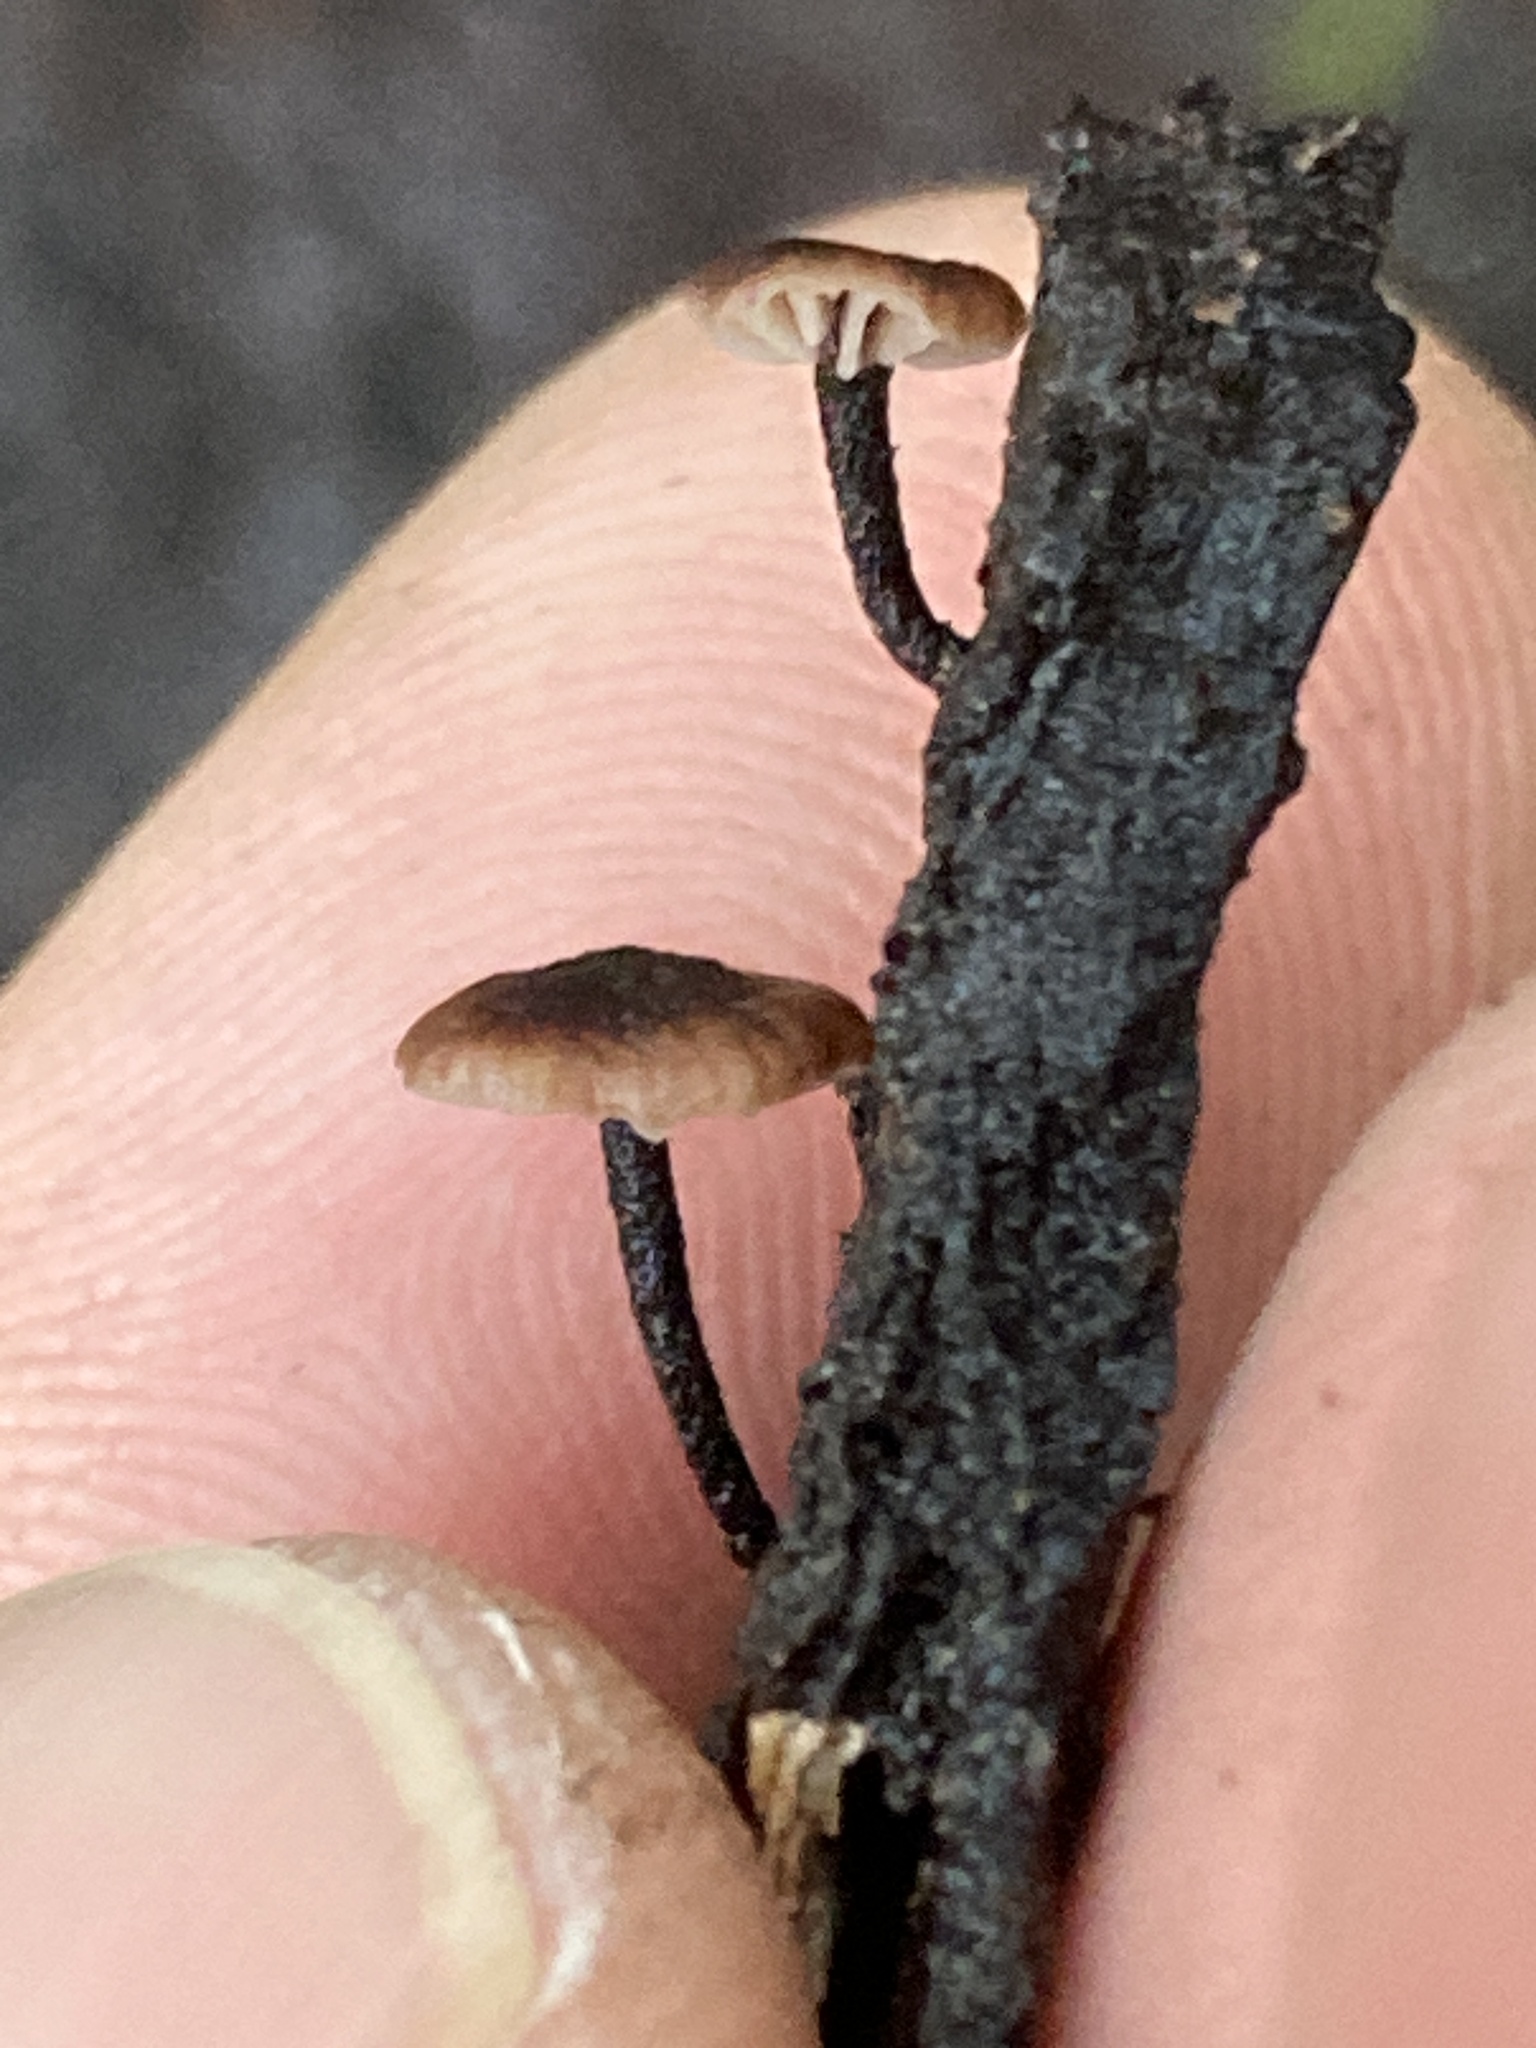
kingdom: Fungi
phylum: Basidiomycota
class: Agaricomycetes
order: Agaricales
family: Omphalotaceae
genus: Micromphale
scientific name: Micromphale arbuticola
